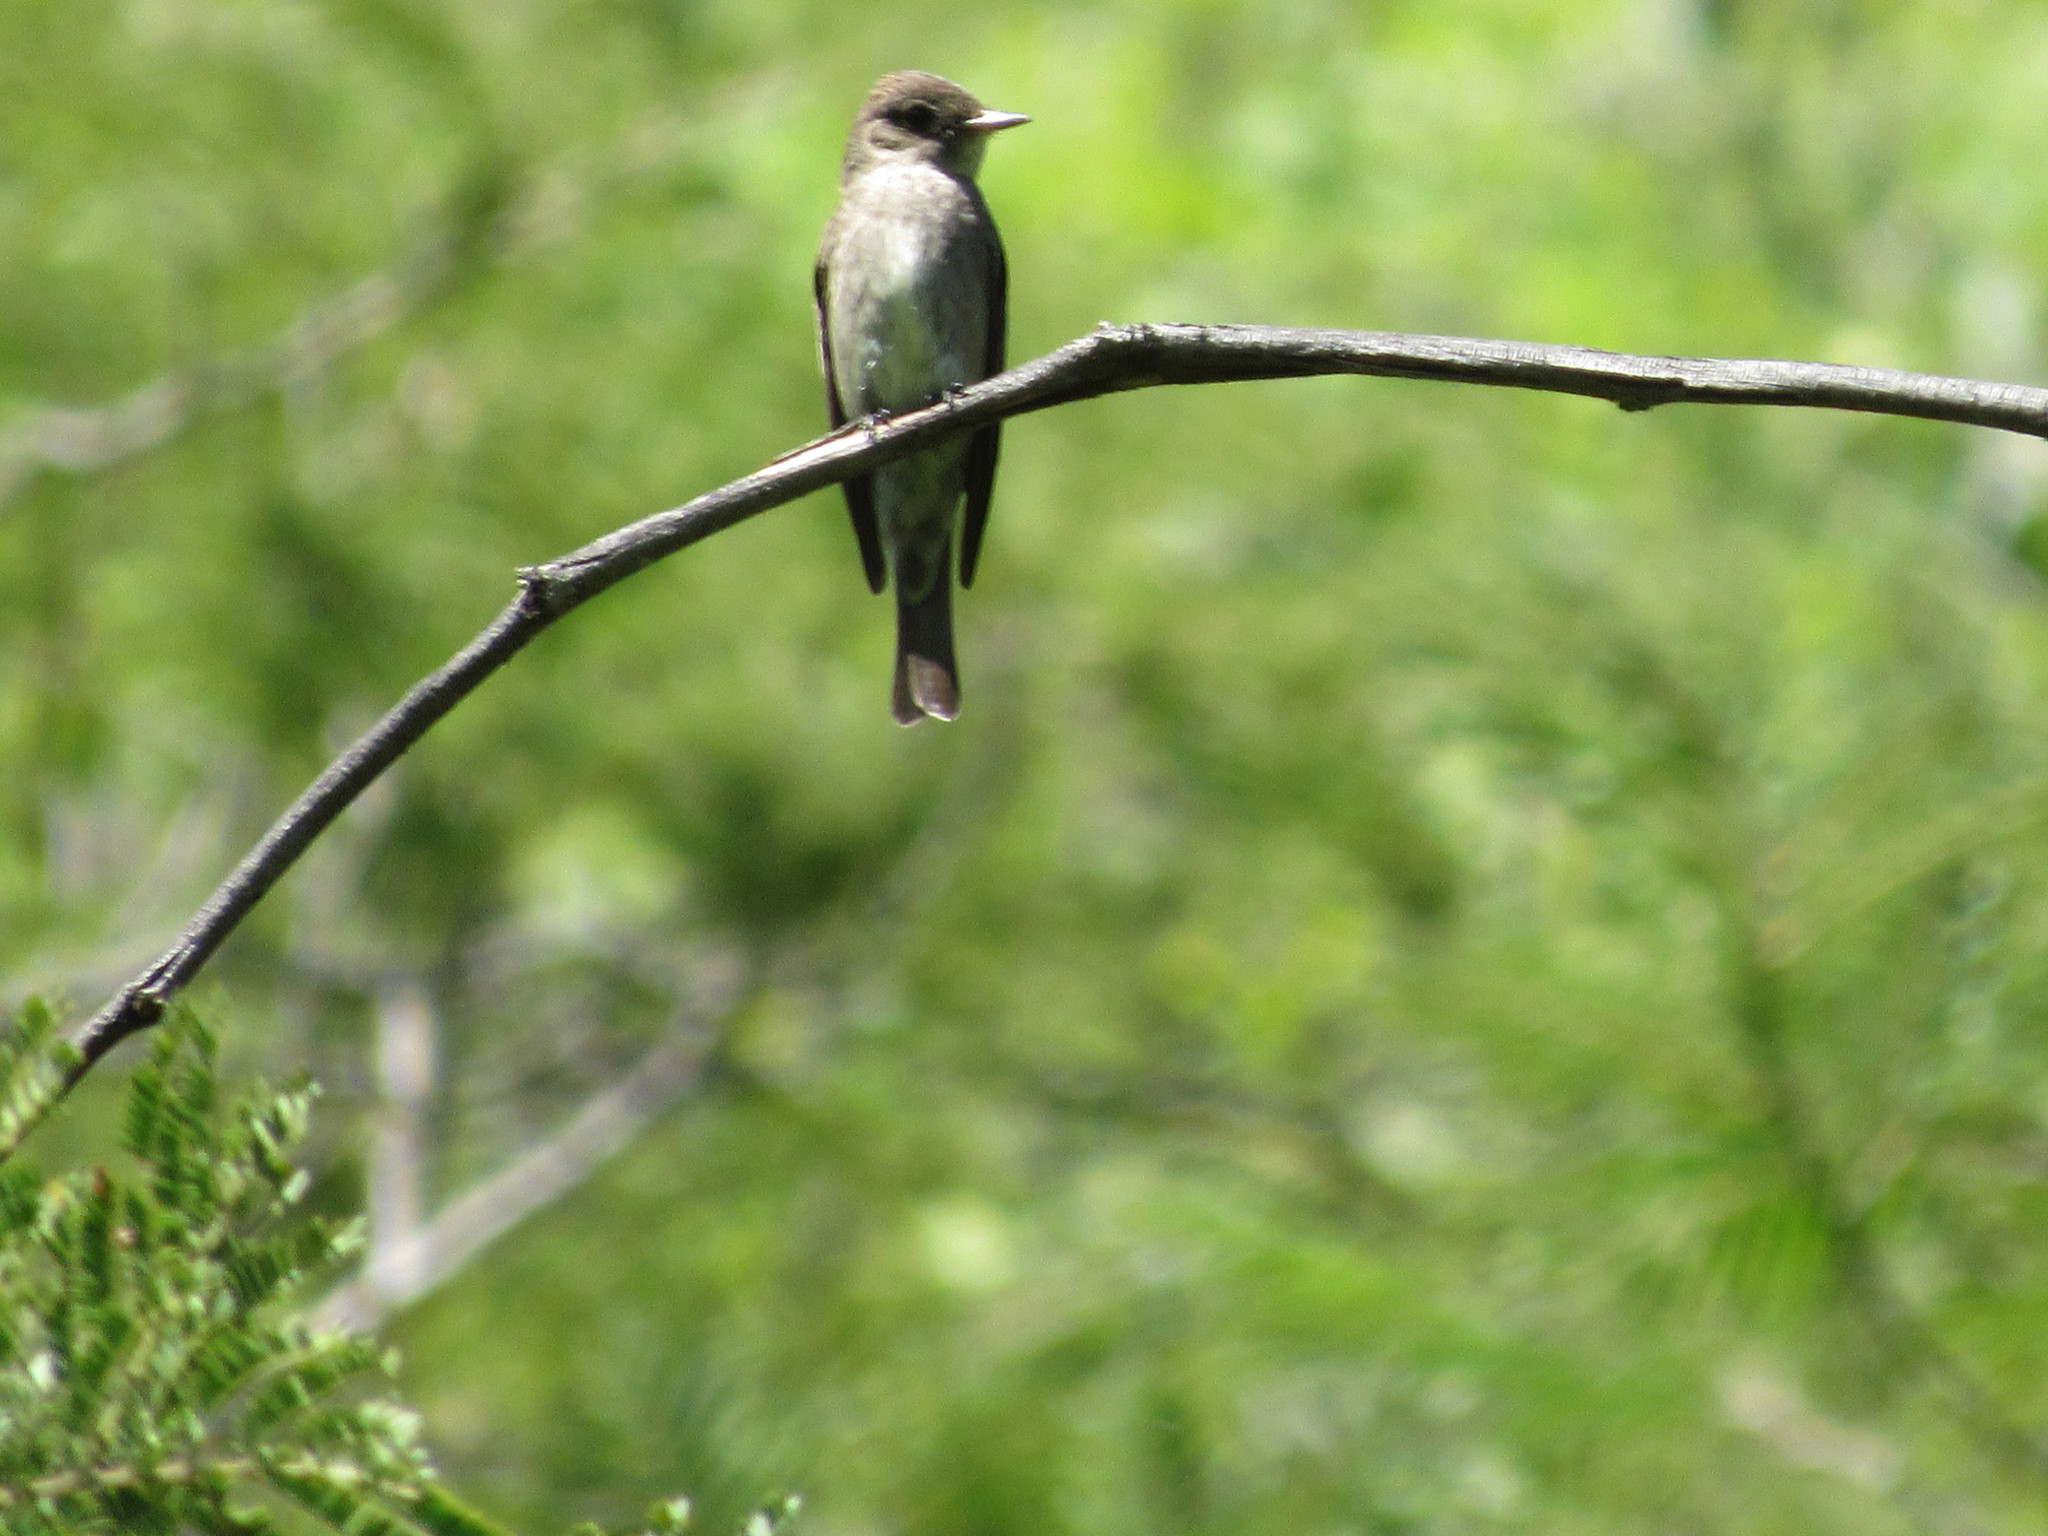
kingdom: Animalia
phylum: Chordata
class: Aves
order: Passeriformes
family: Tyrannidae
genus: Contopus
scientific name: Contopus sordidulus
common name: Western wood-pewee
